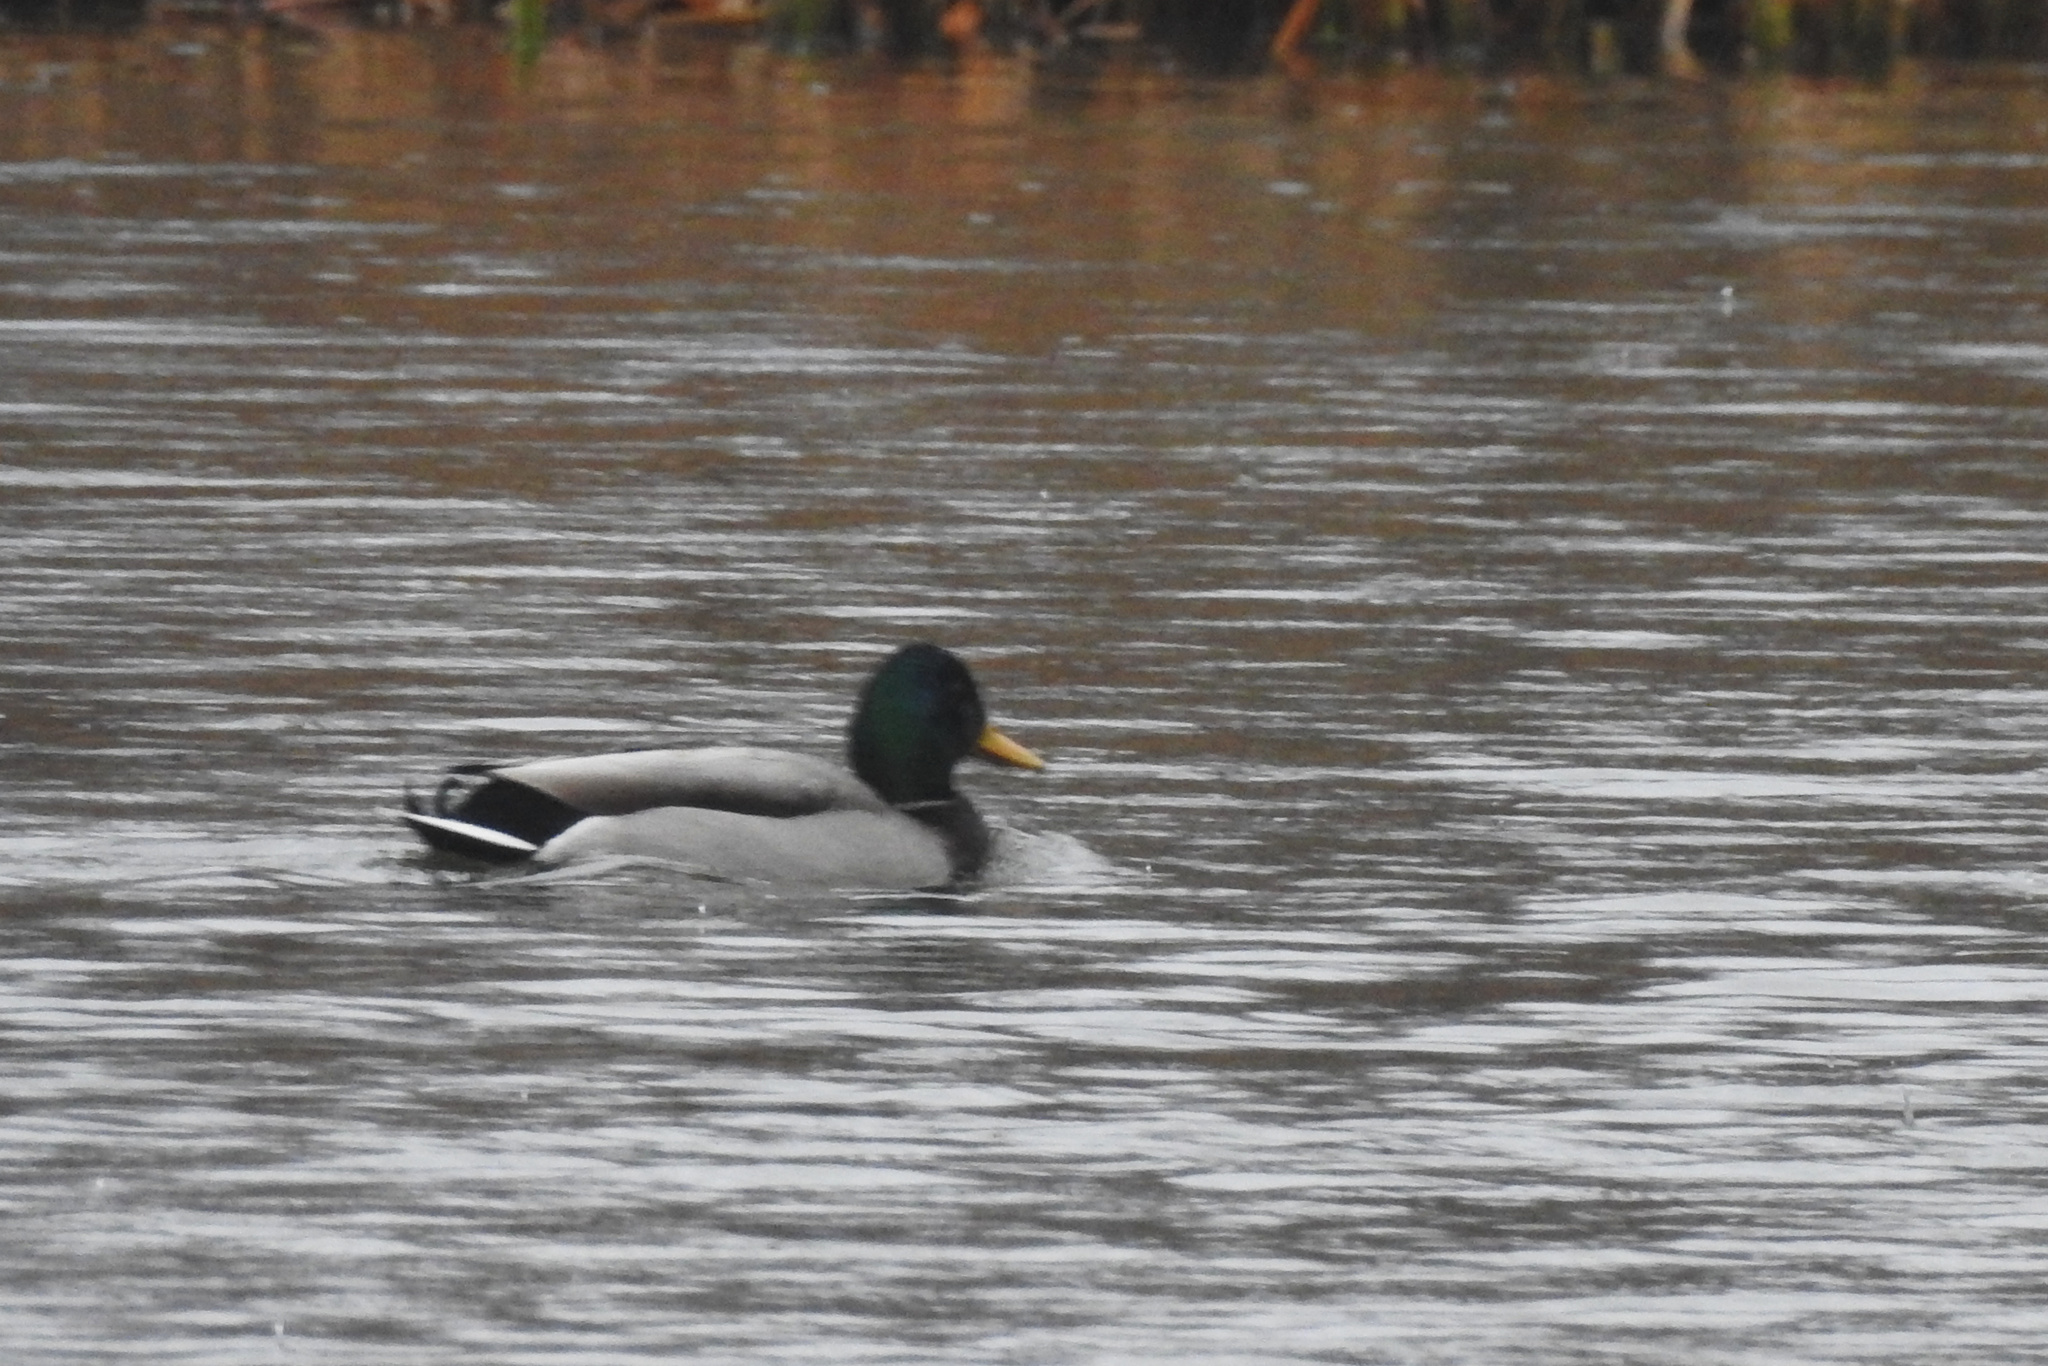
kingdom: Animalia
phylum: Chordata
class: Aves
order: Anseriformes
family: Anatidae
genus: Anas
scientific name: Anas platyrhynchos
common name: Mallard
